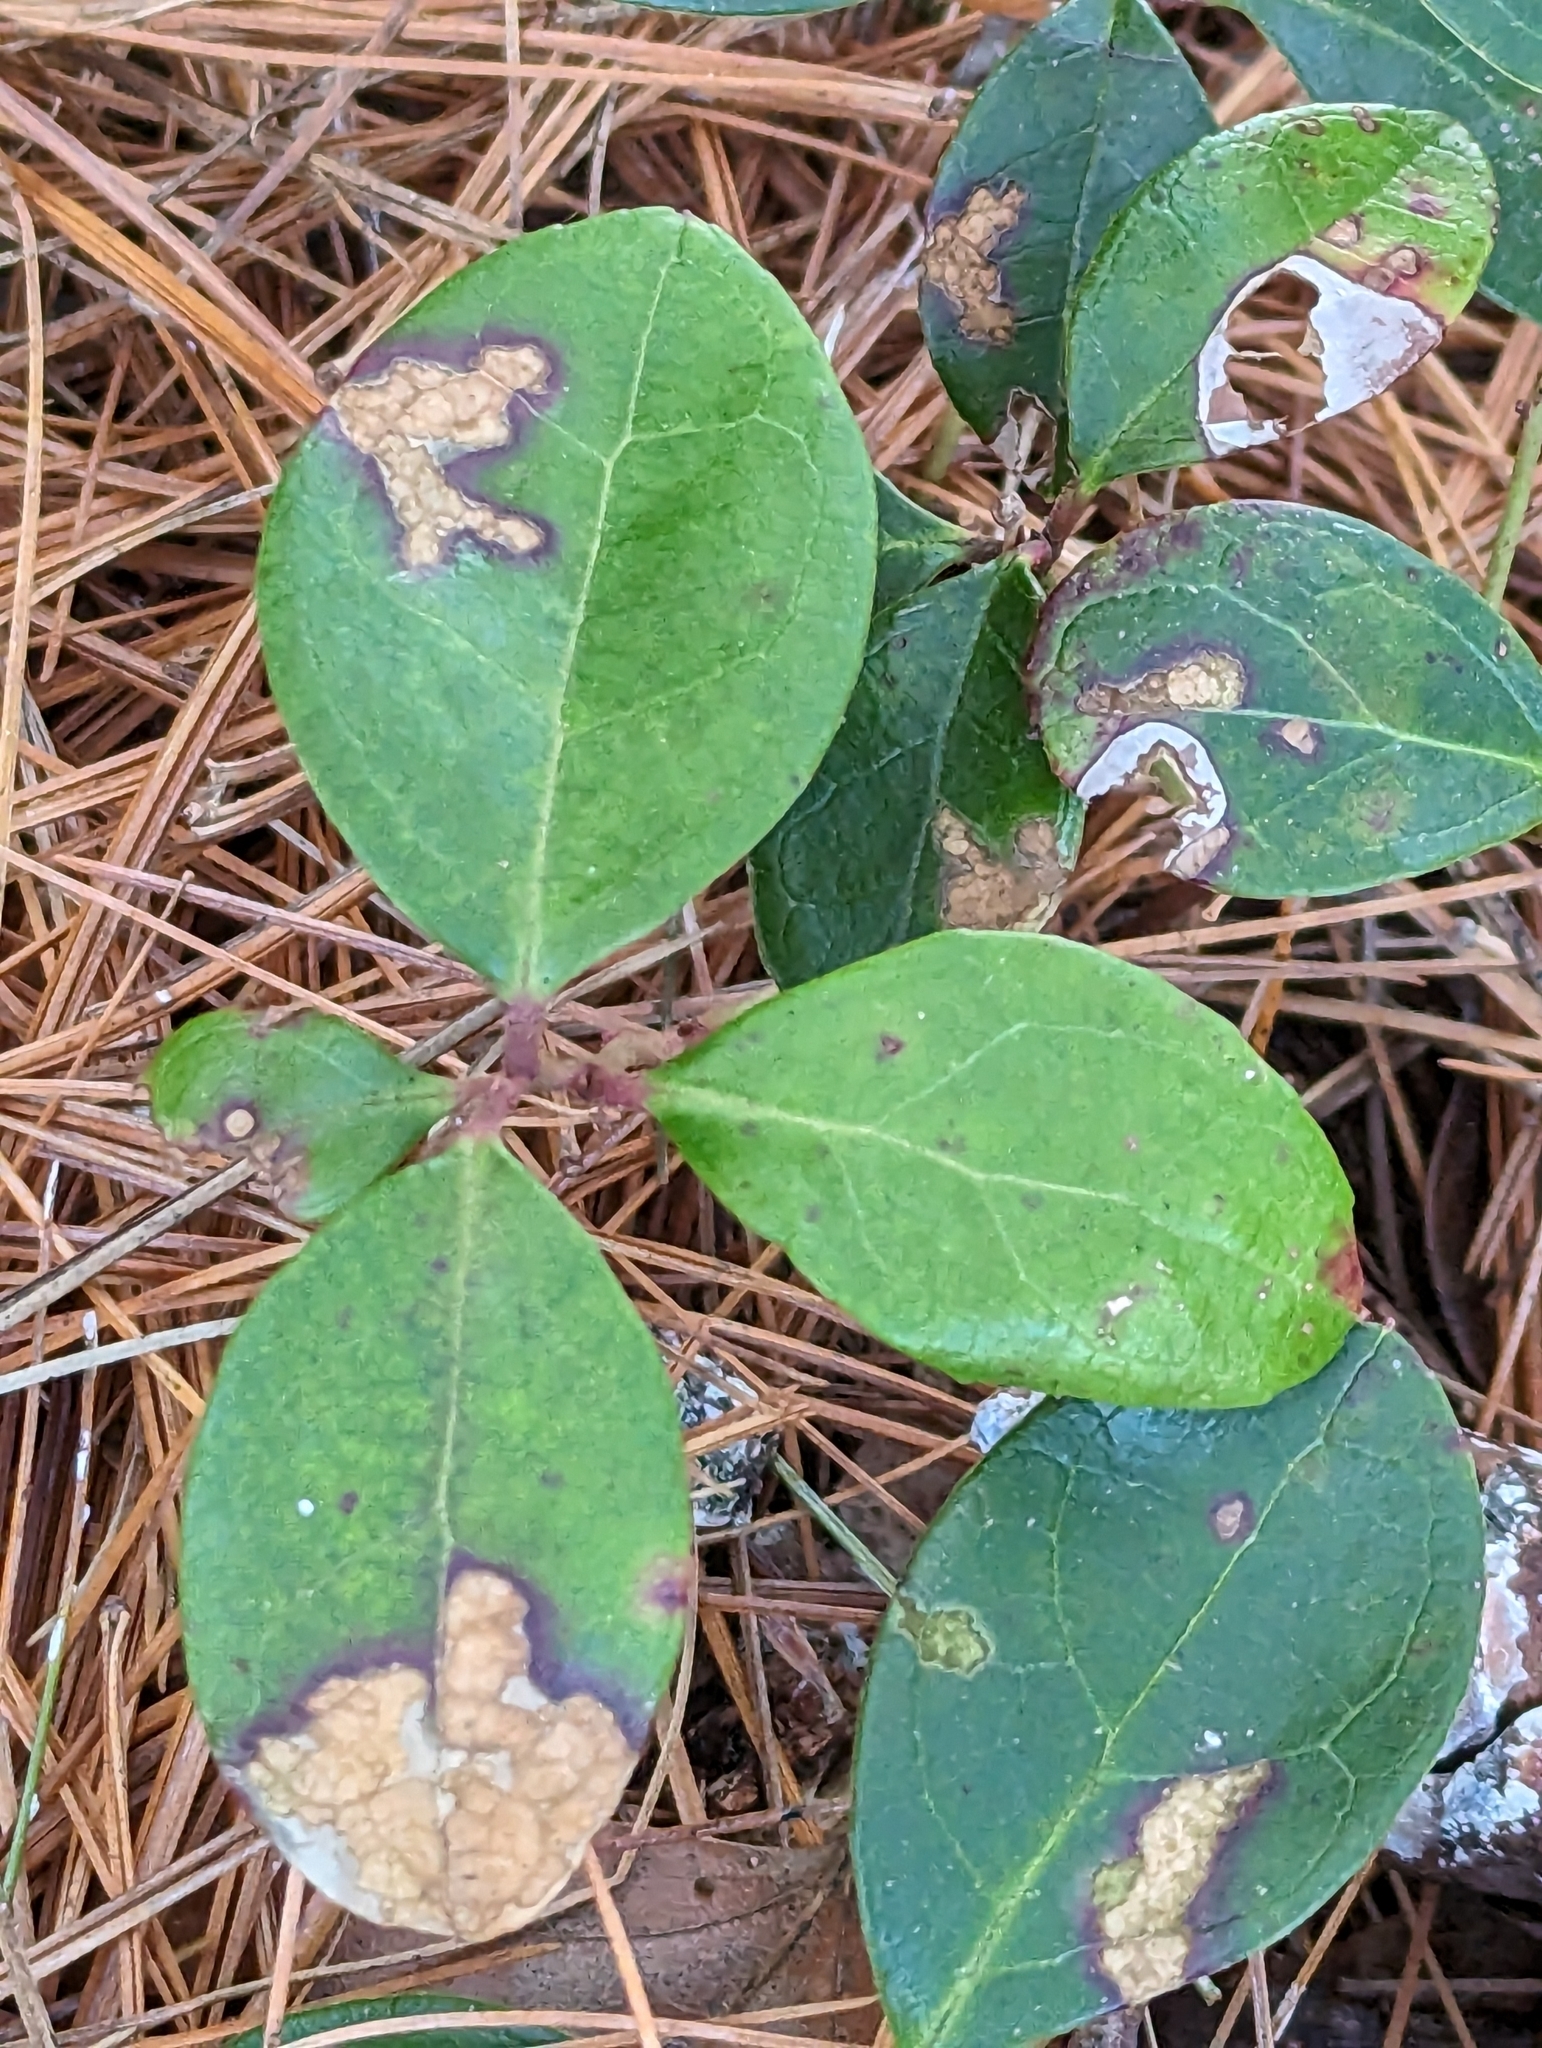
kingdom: Plantae
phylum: Tracheophyta
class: Magnoliopsida
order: Ericales
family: Ericaceae
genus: Gaultheria
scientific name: Gaultheria procumbens
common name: Checkerberry
